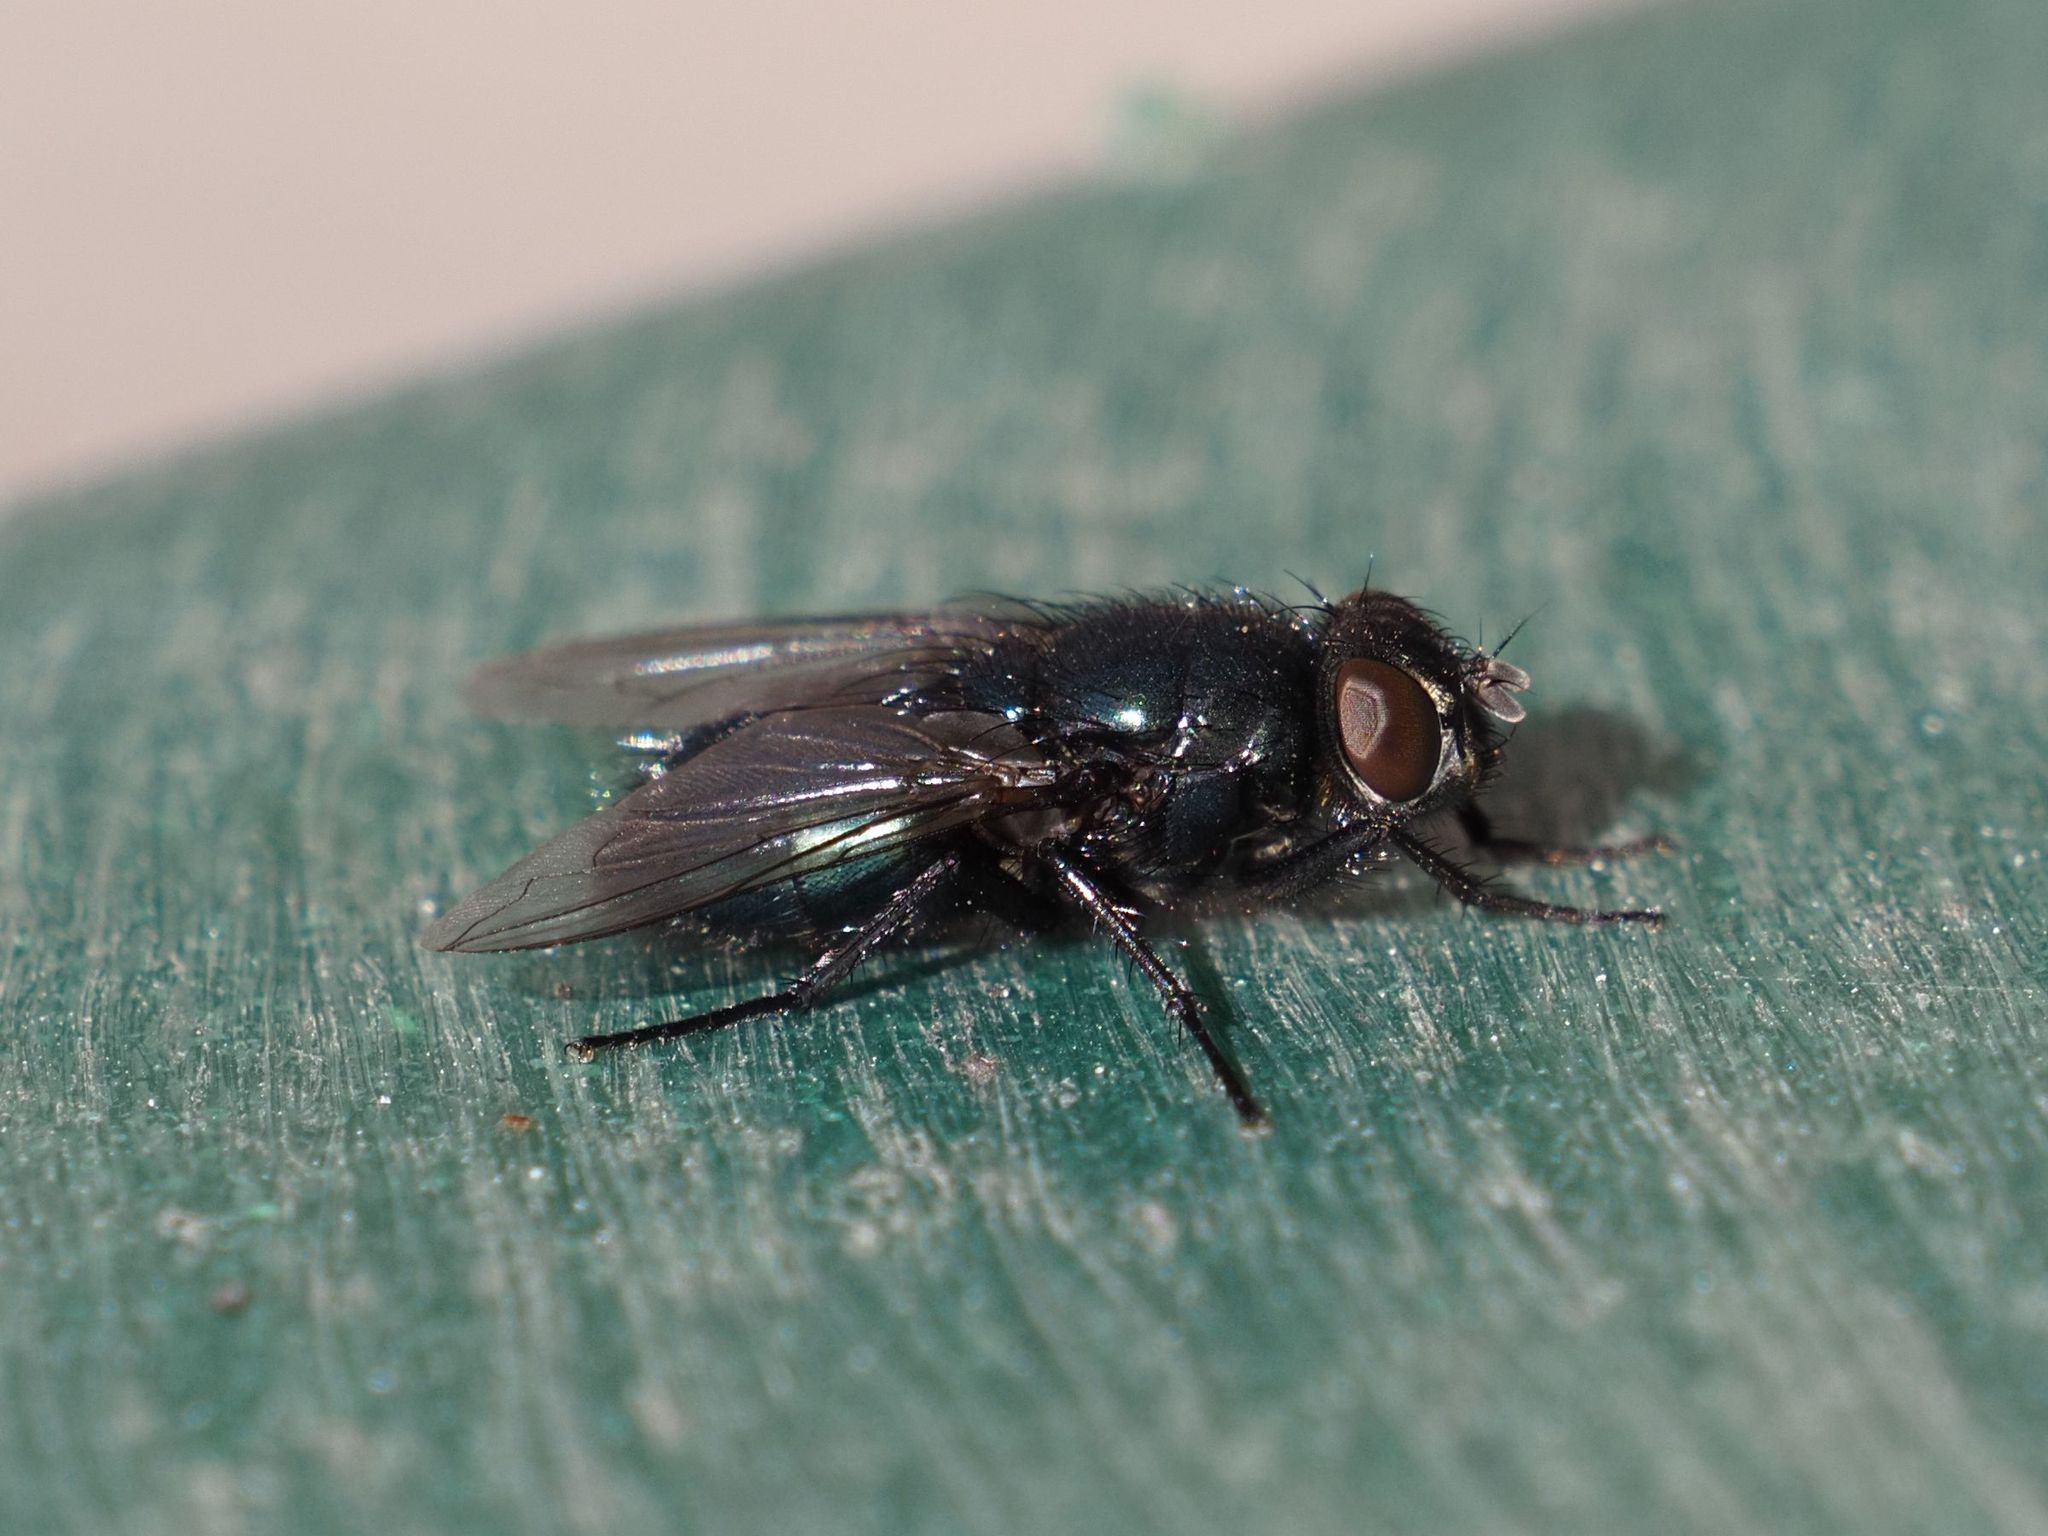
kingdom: Animalia
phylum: Arthropoda
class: Insecta
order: Diptera
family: Calliphoridae
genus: Protophormia
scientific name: Protophormia terraenovae
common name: Blackbottle
